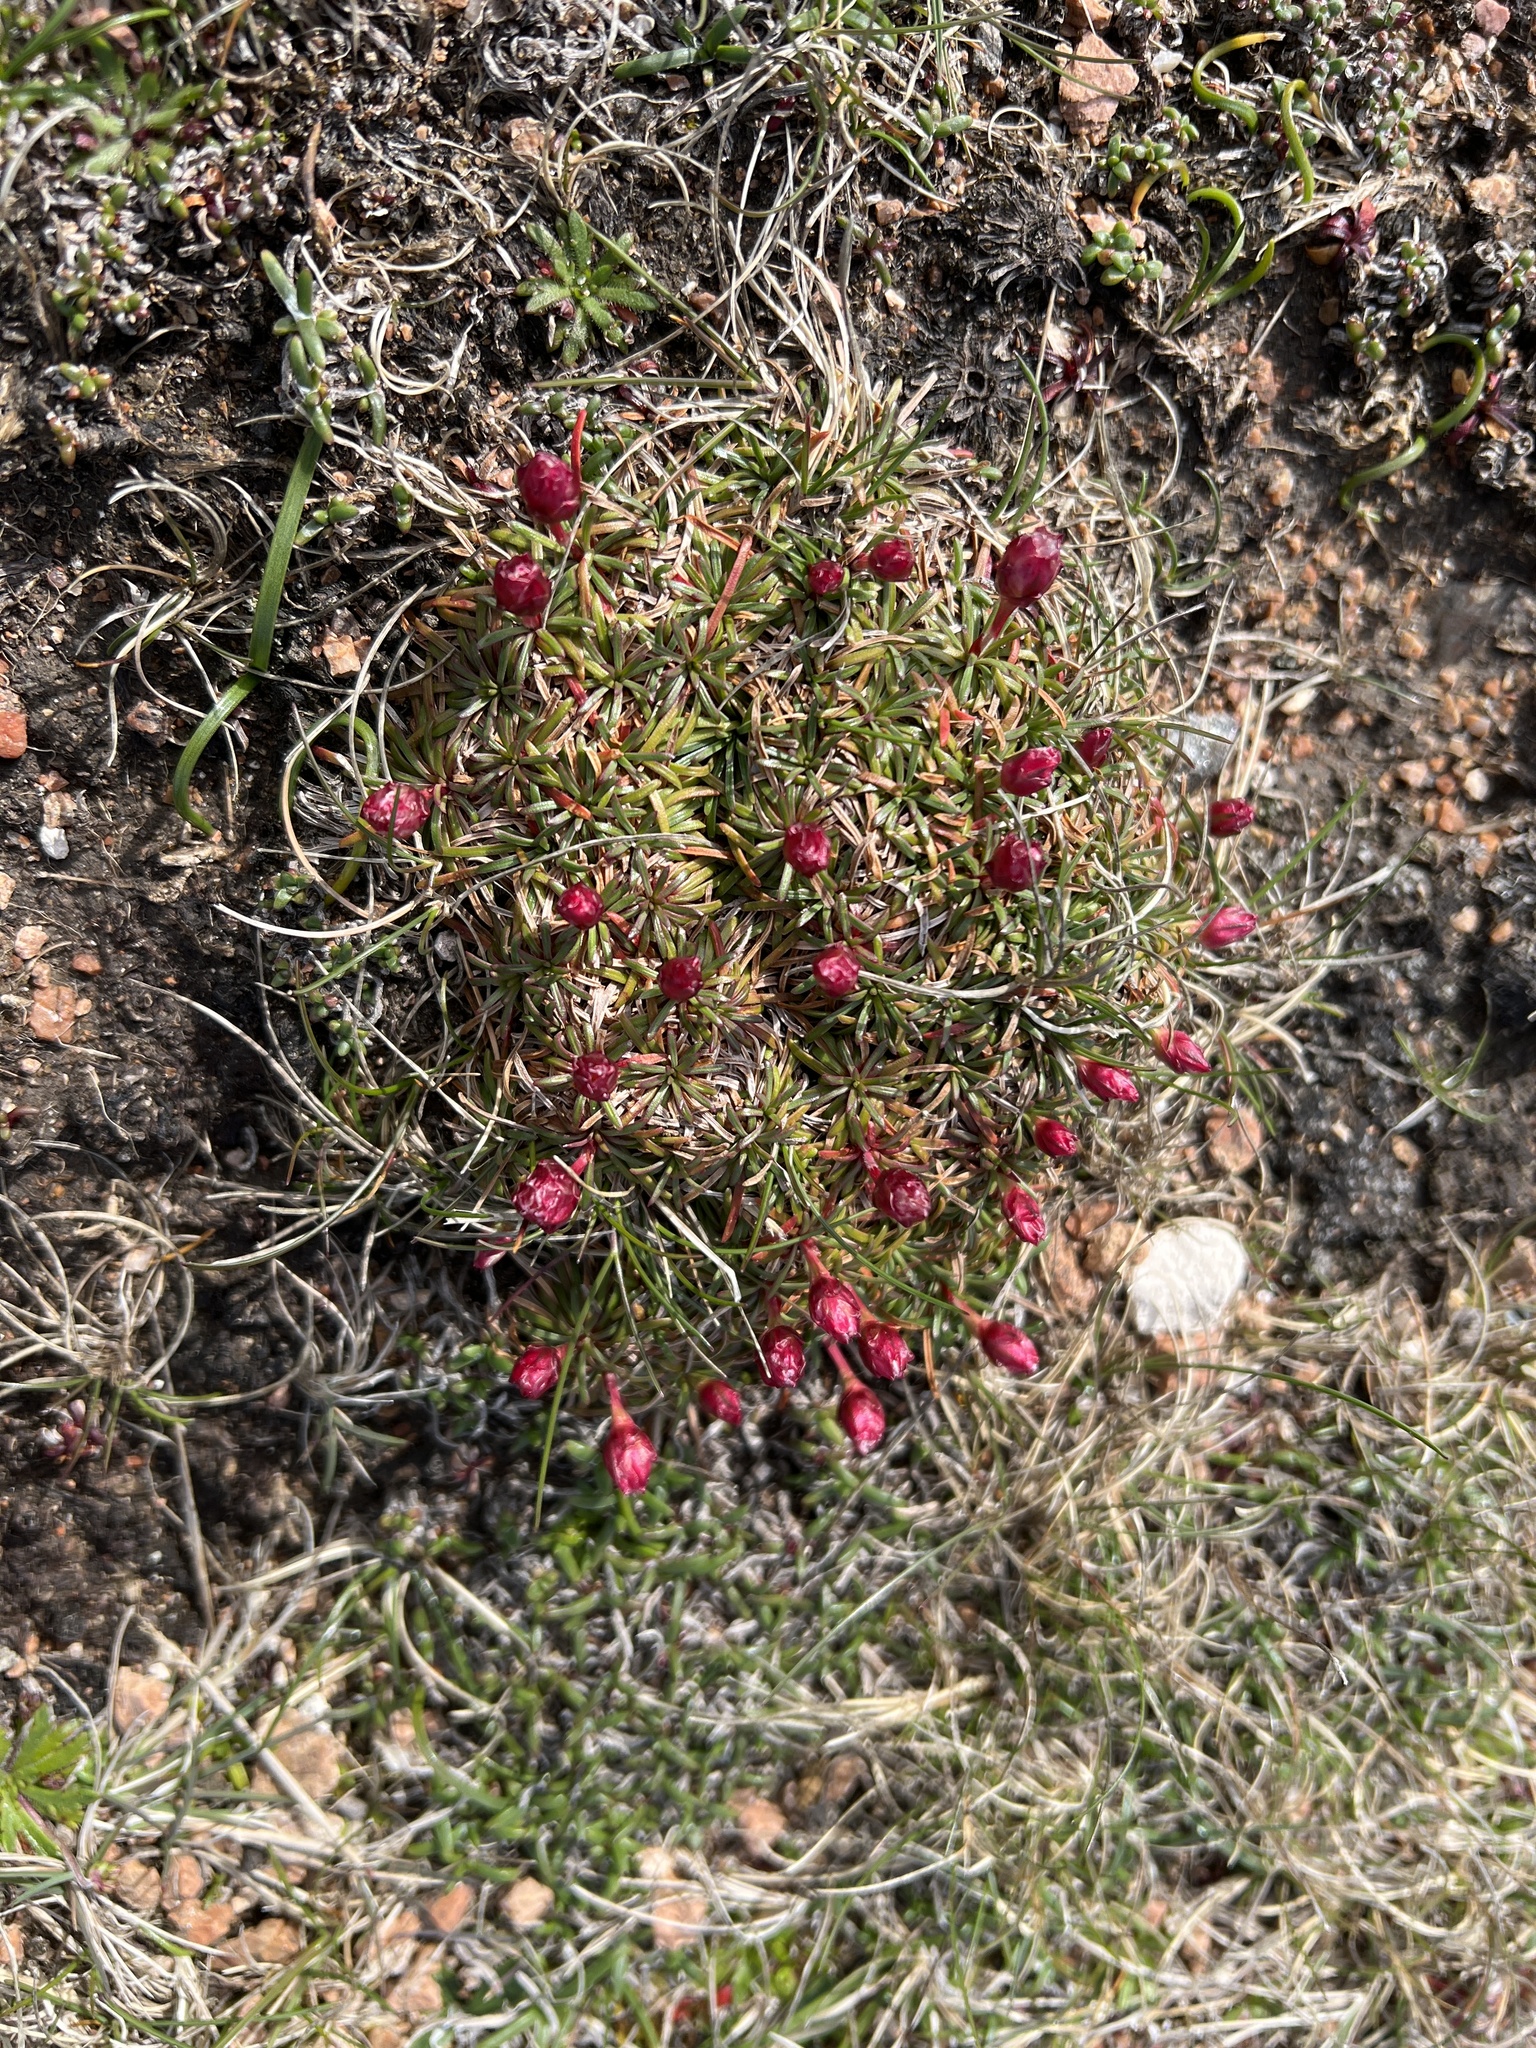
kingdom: Plantae
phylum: Tracheophyta
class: Magnoliopsida
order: Caryophyllales
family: Plumbaginaceae
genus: Armeria
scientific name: Armeria maritima
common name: Thrift
